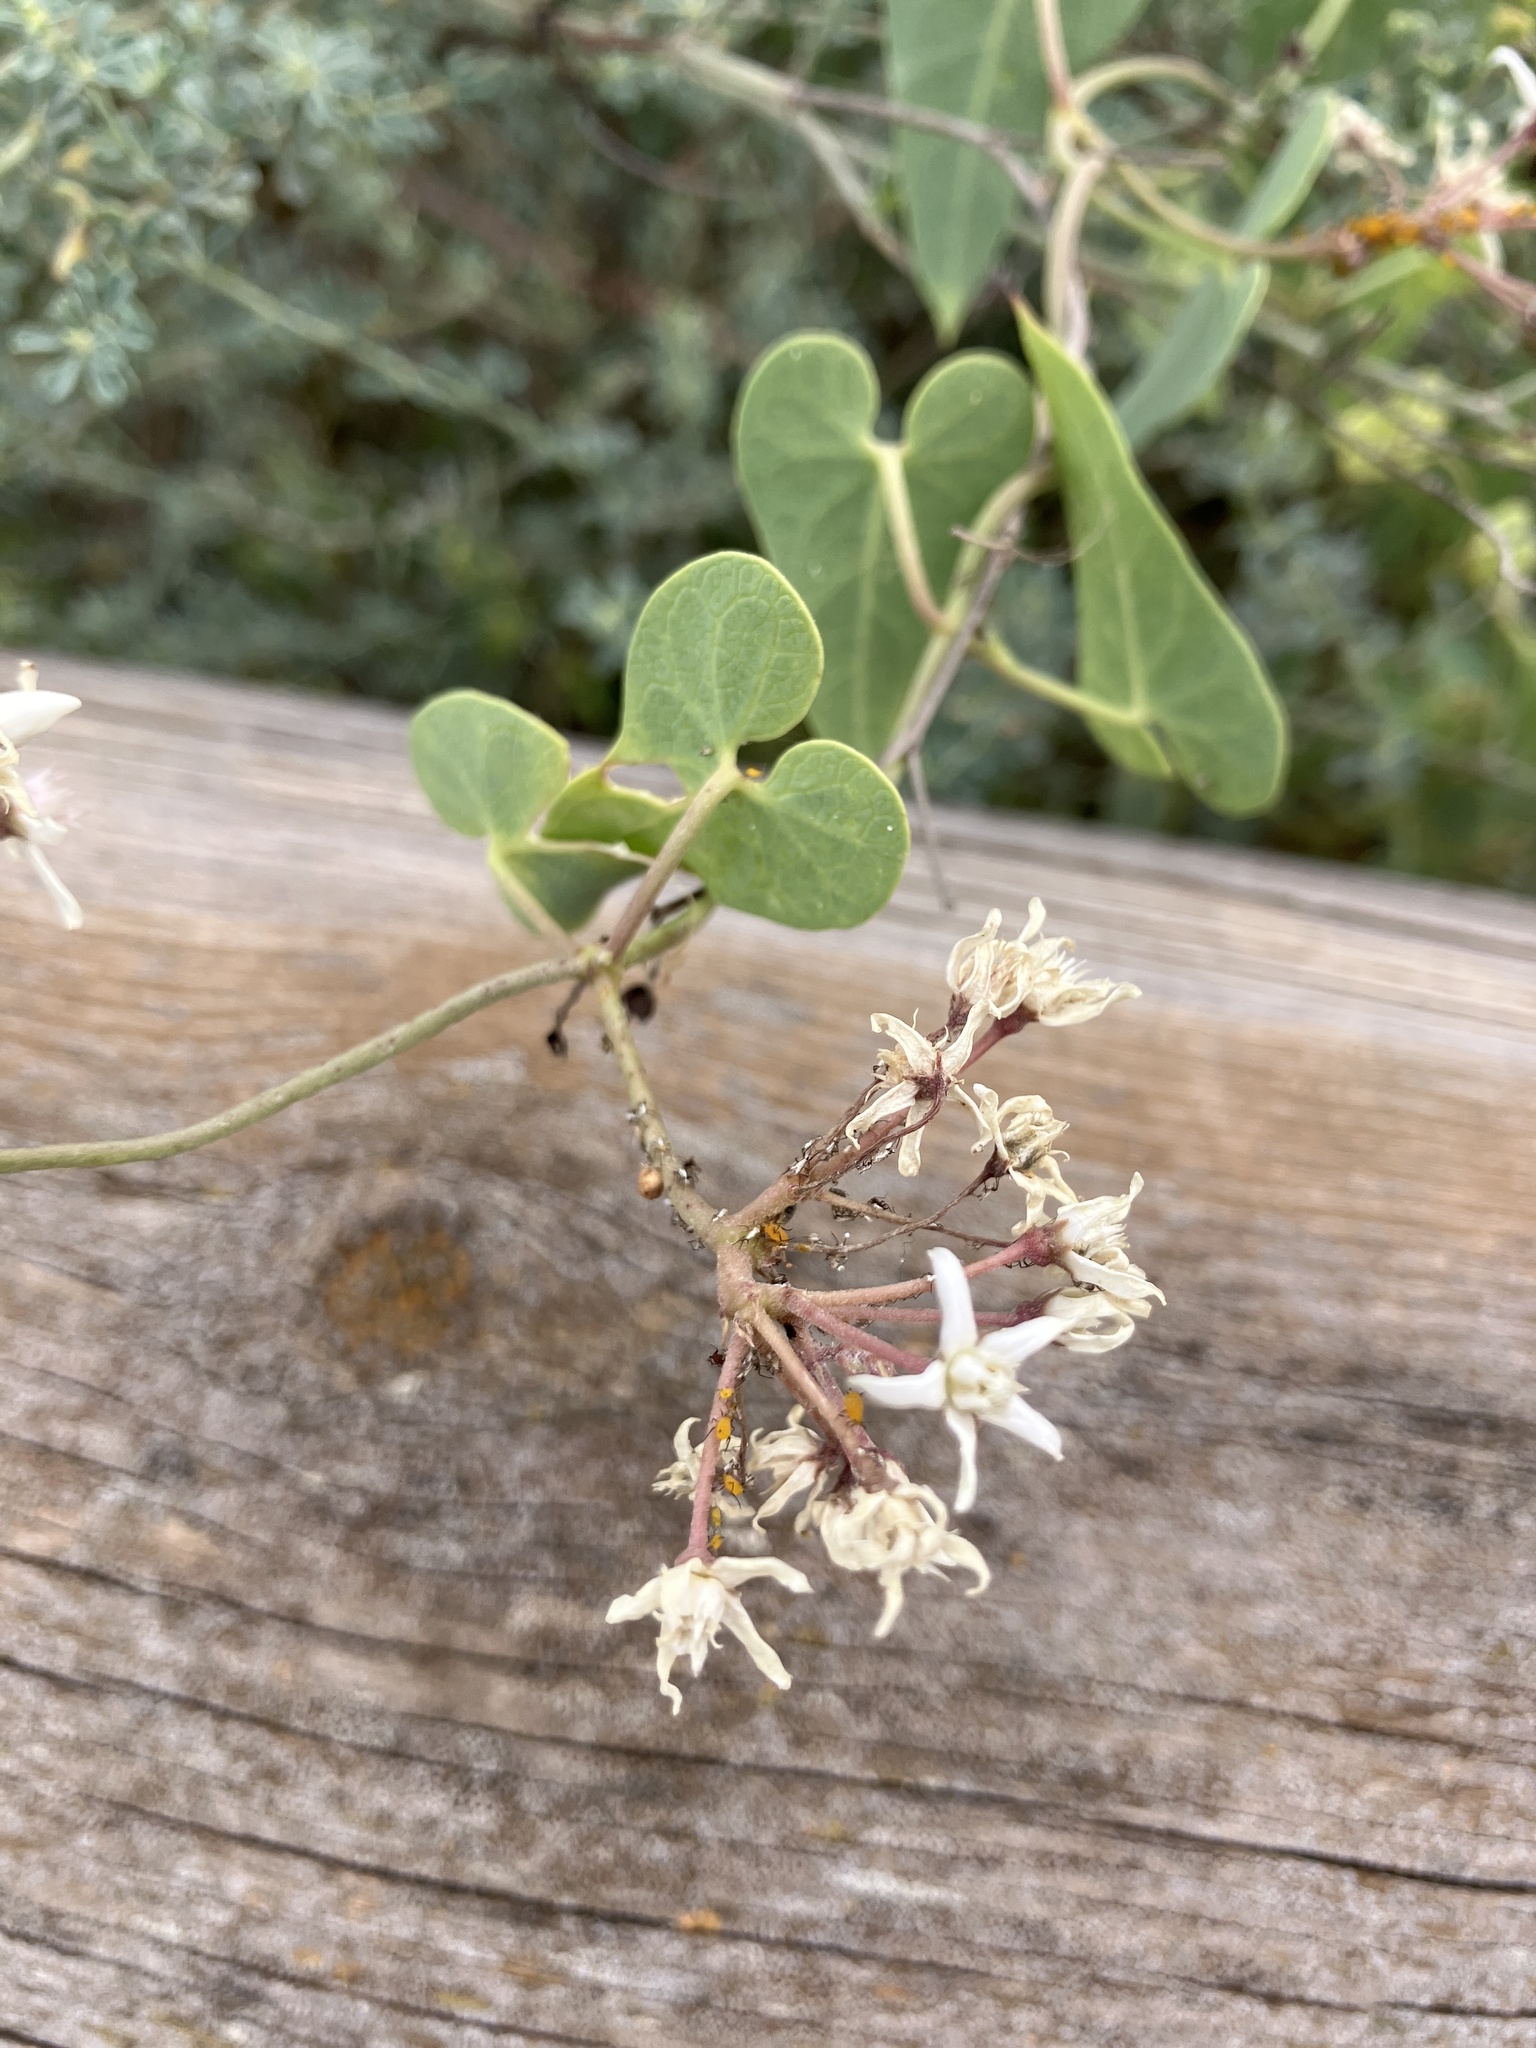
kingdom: Plantae
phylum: Tracheophyta
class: Magnoliopsida
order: Gentianales
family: Apocynaceae
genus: Cynanchum
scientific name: Cynanchum acutum
